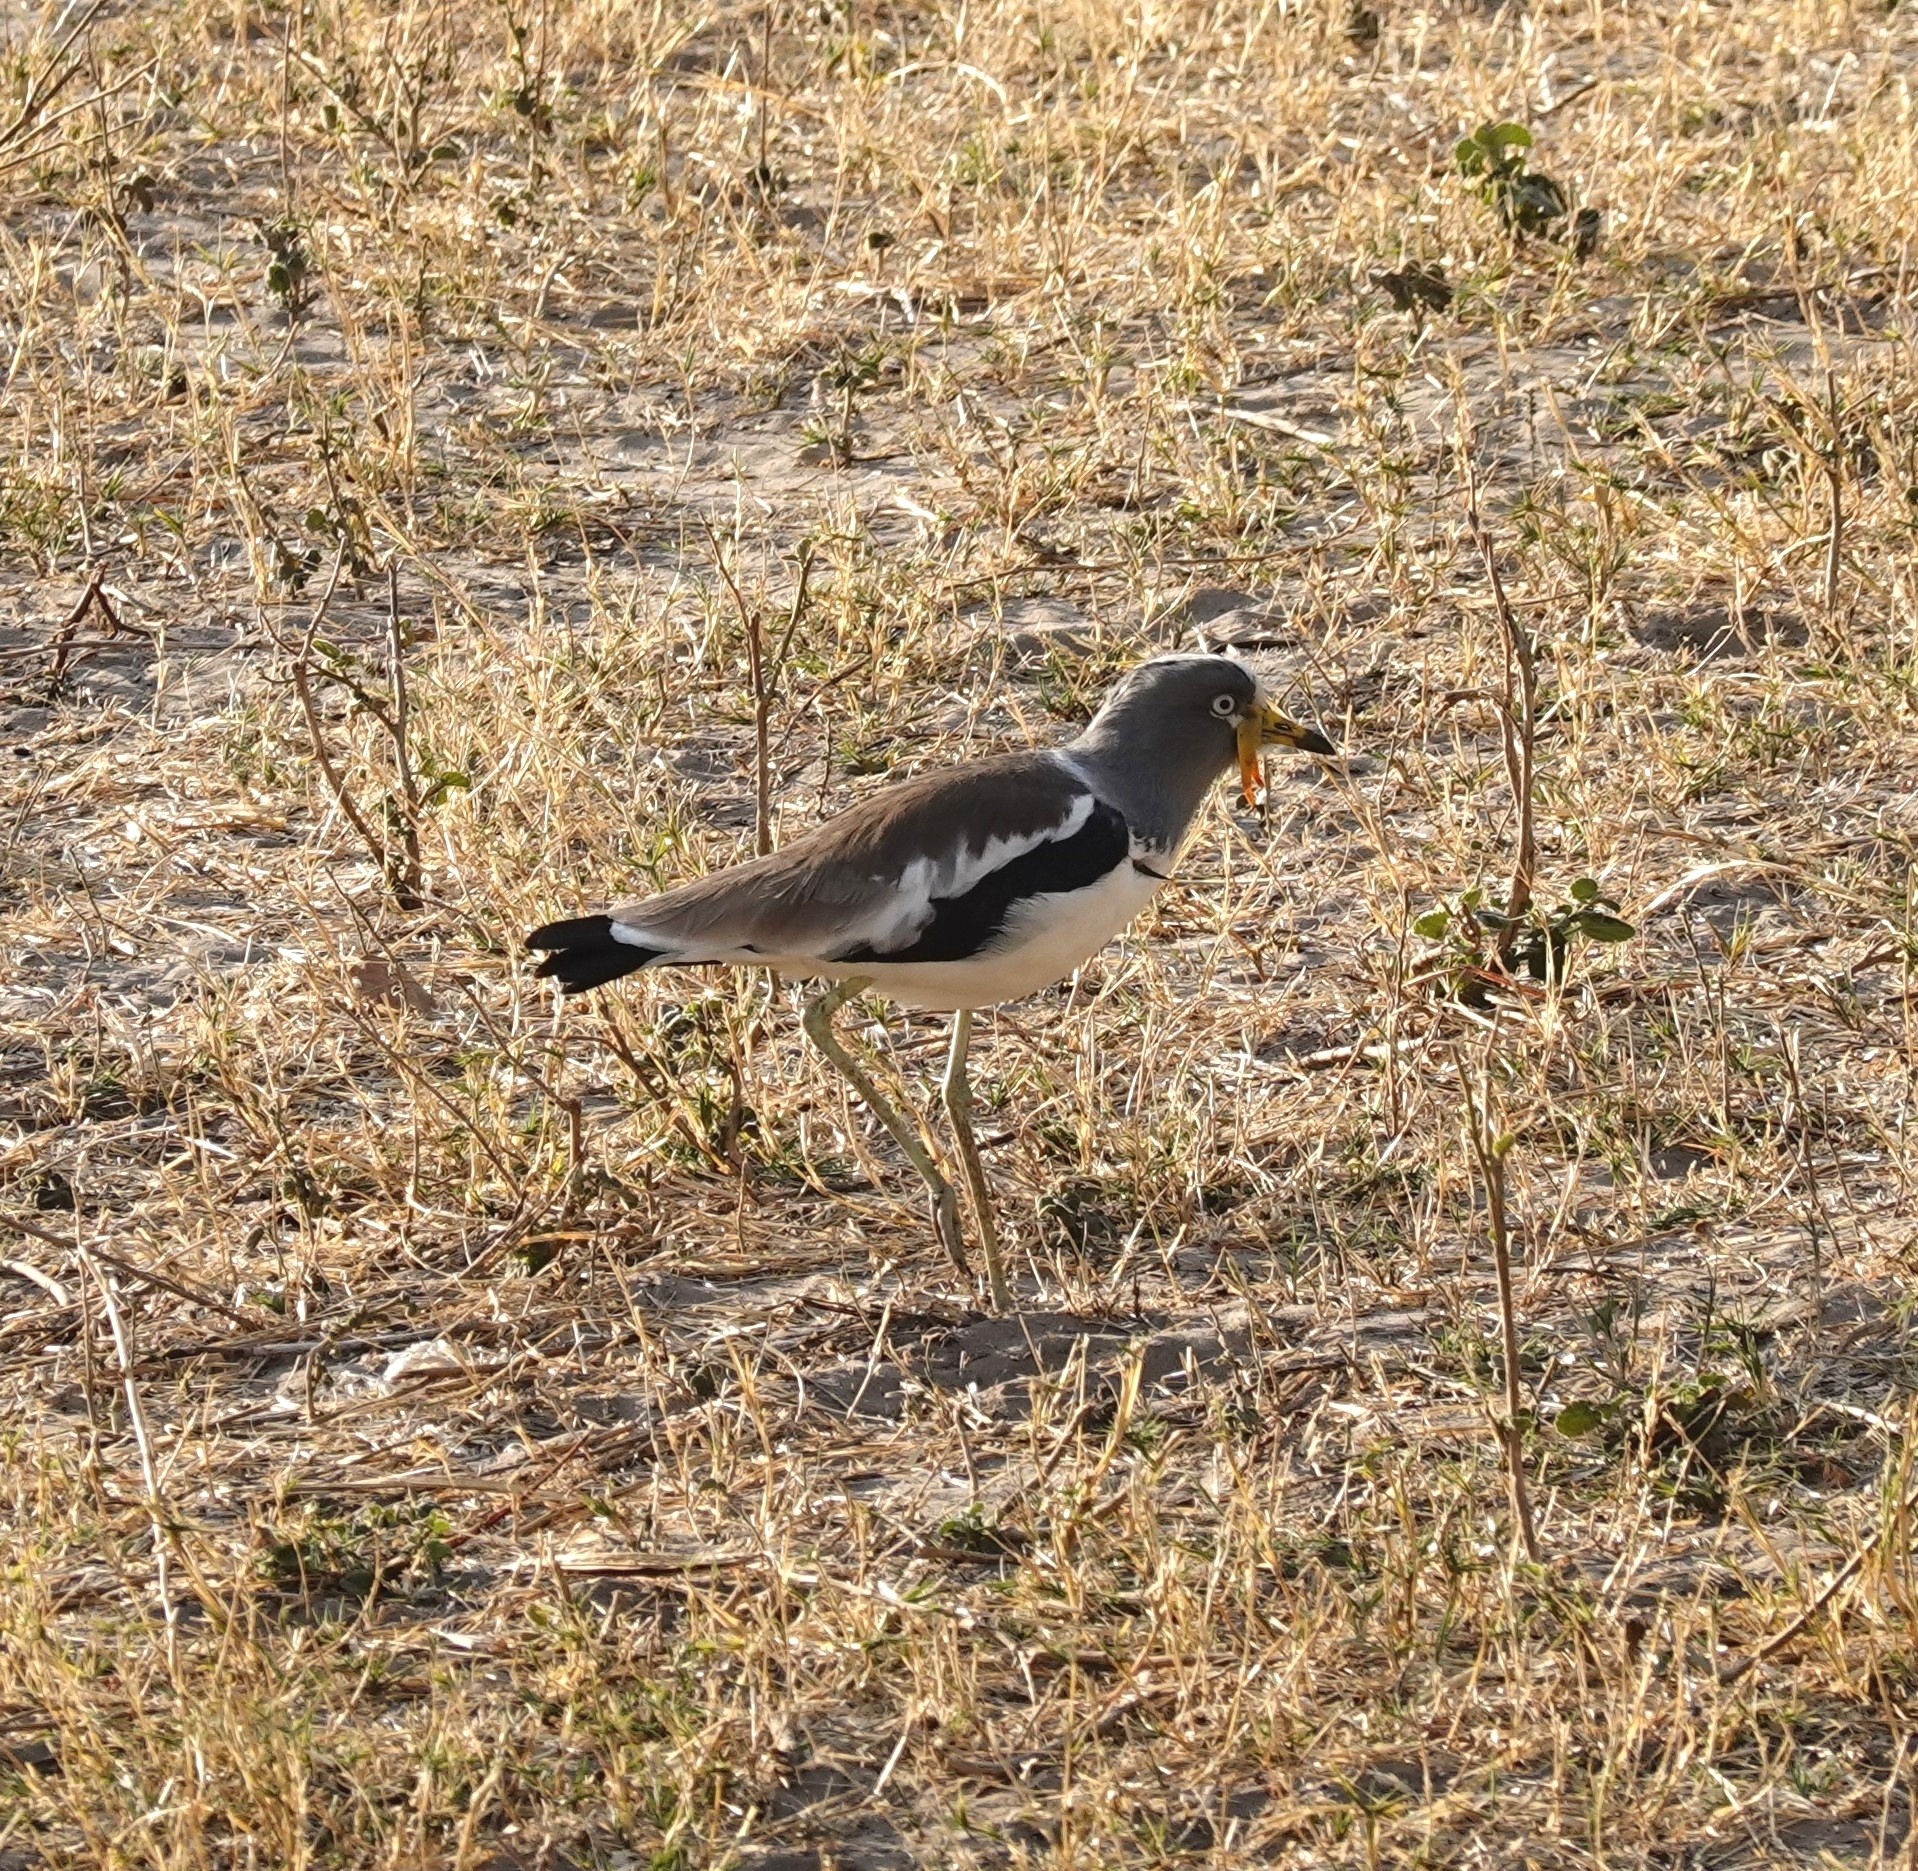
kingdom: Animalia
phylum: Chordata
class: Aves
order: Charadriiformes
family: Charadriidae
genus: Vanellus
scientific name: Vanellus albiceps
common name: White-crowned lapwing
